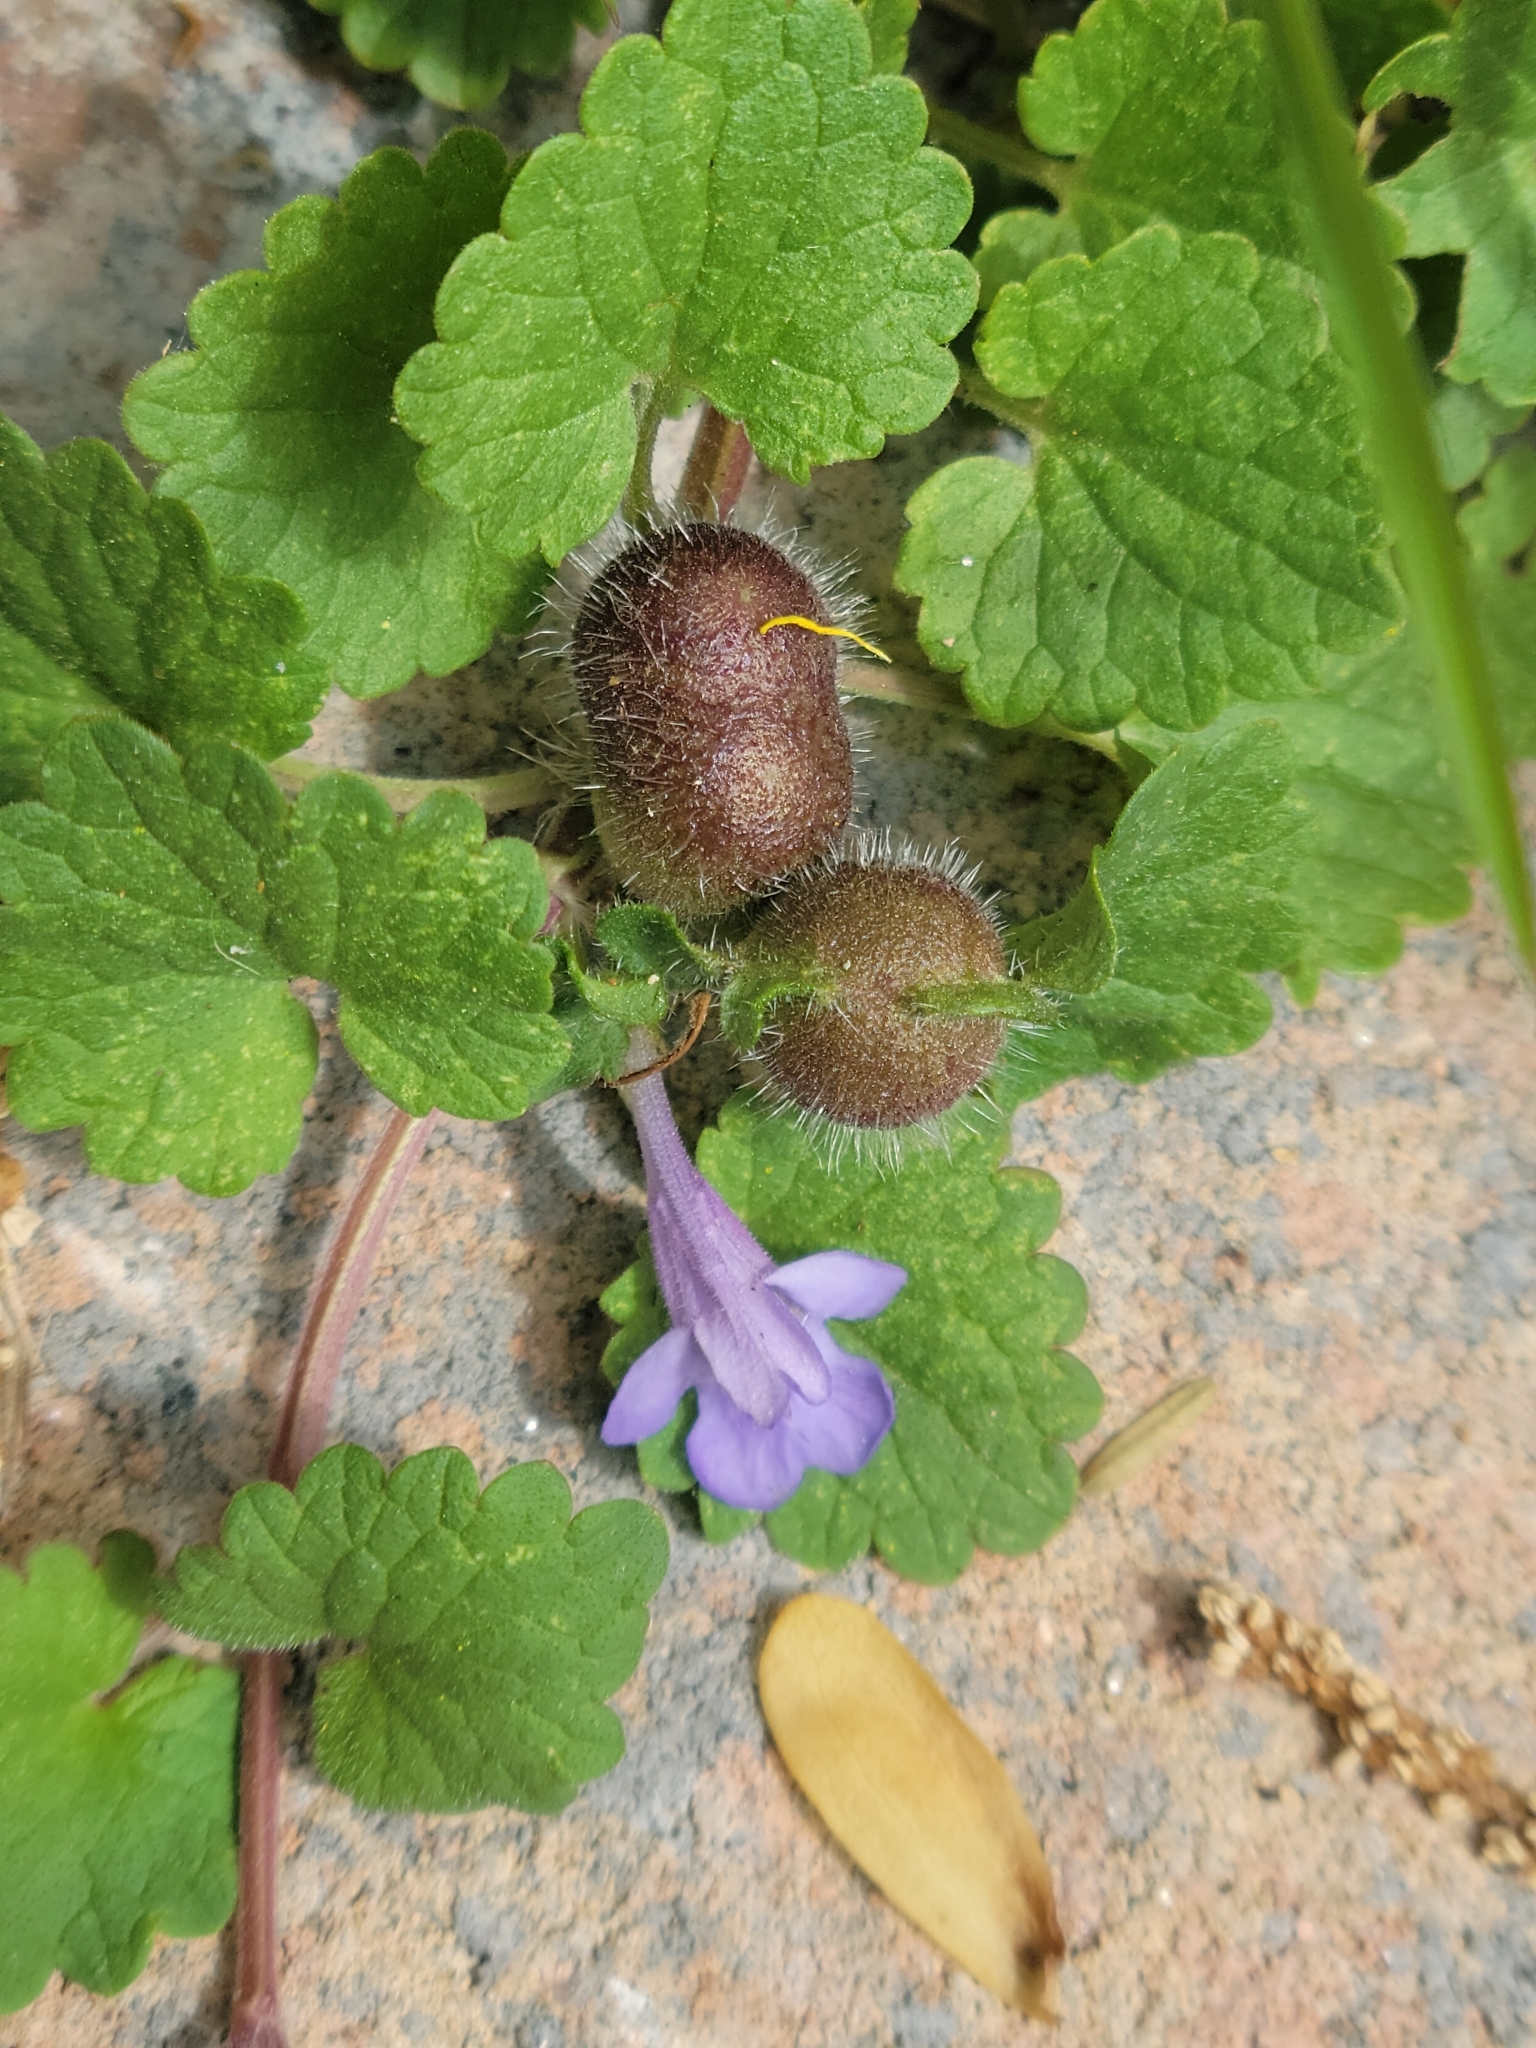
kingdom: Animalia
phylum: Arthropoda
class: Insecta
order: Hymenoptera
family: Cynipidae
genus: Liposthenes
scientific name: Liposthenes glechomae
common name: Gall wasp
